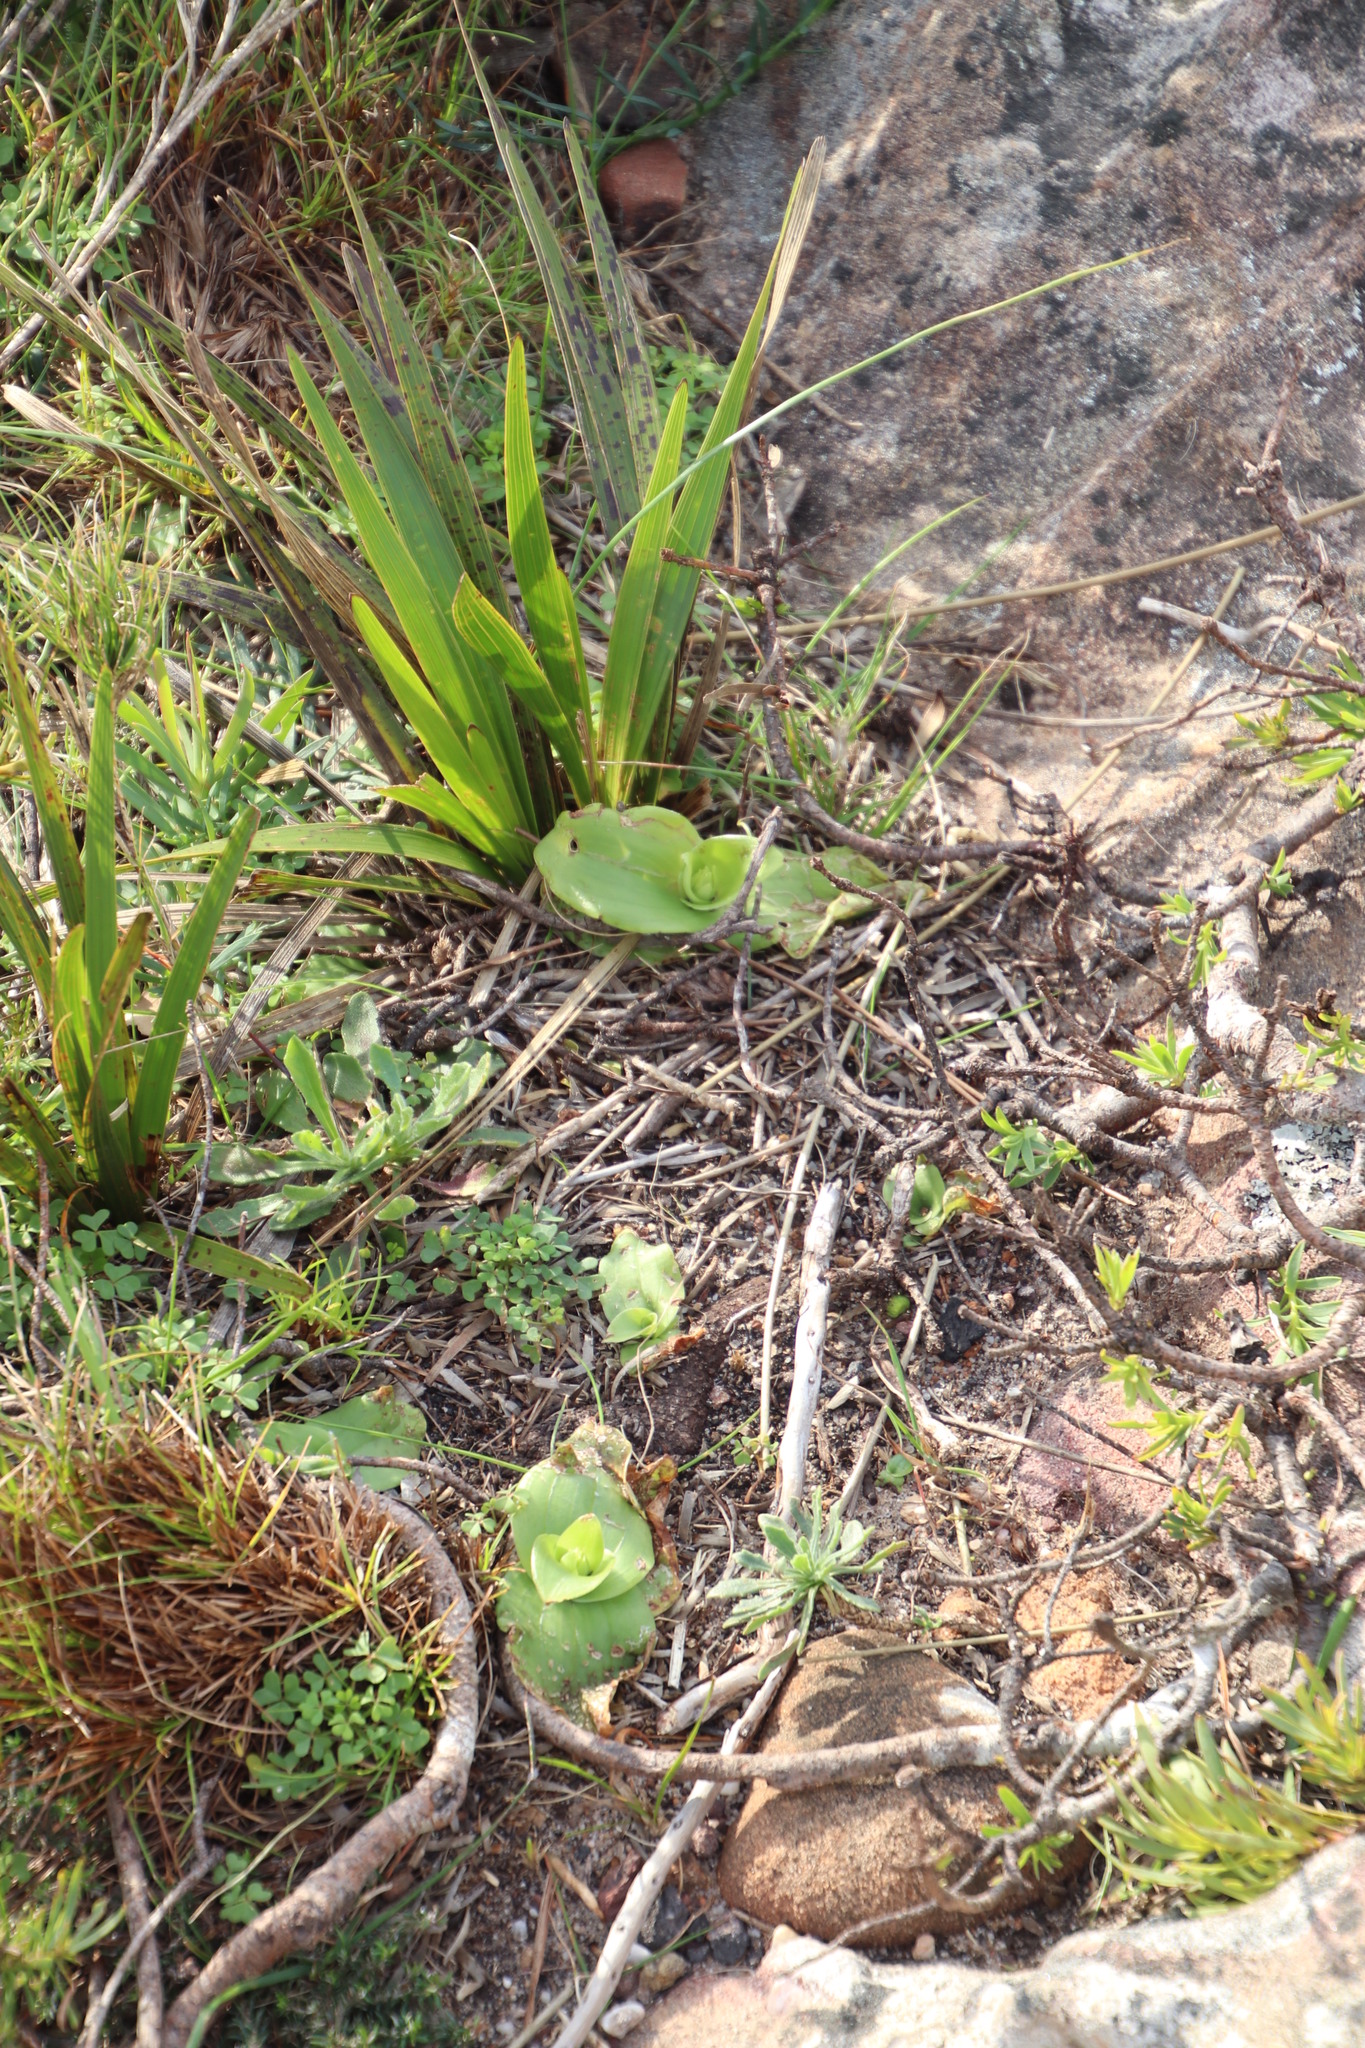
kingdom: Plantae
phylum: Tracheophyta
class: Liliopsida
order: Asparagales
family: Orchidaceae
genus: Satyrium
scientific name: Satyrium odorum
